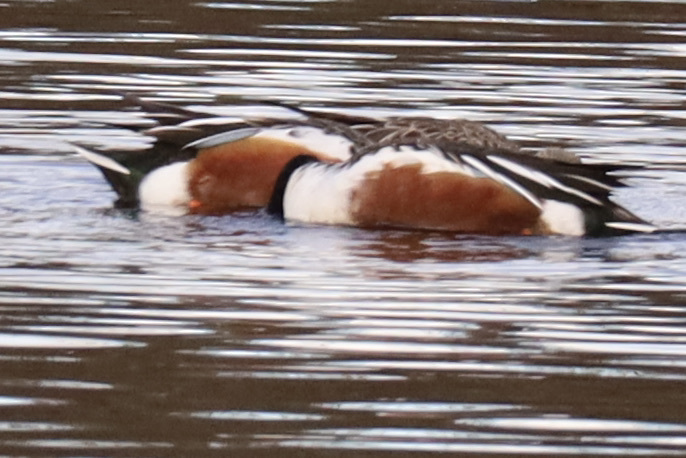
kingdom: Animalia
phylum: Chordata
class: Aves
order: Anseriformes
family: Anatidae
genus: Spatula
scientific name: Spatula clypeata
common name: Northern shoveler
